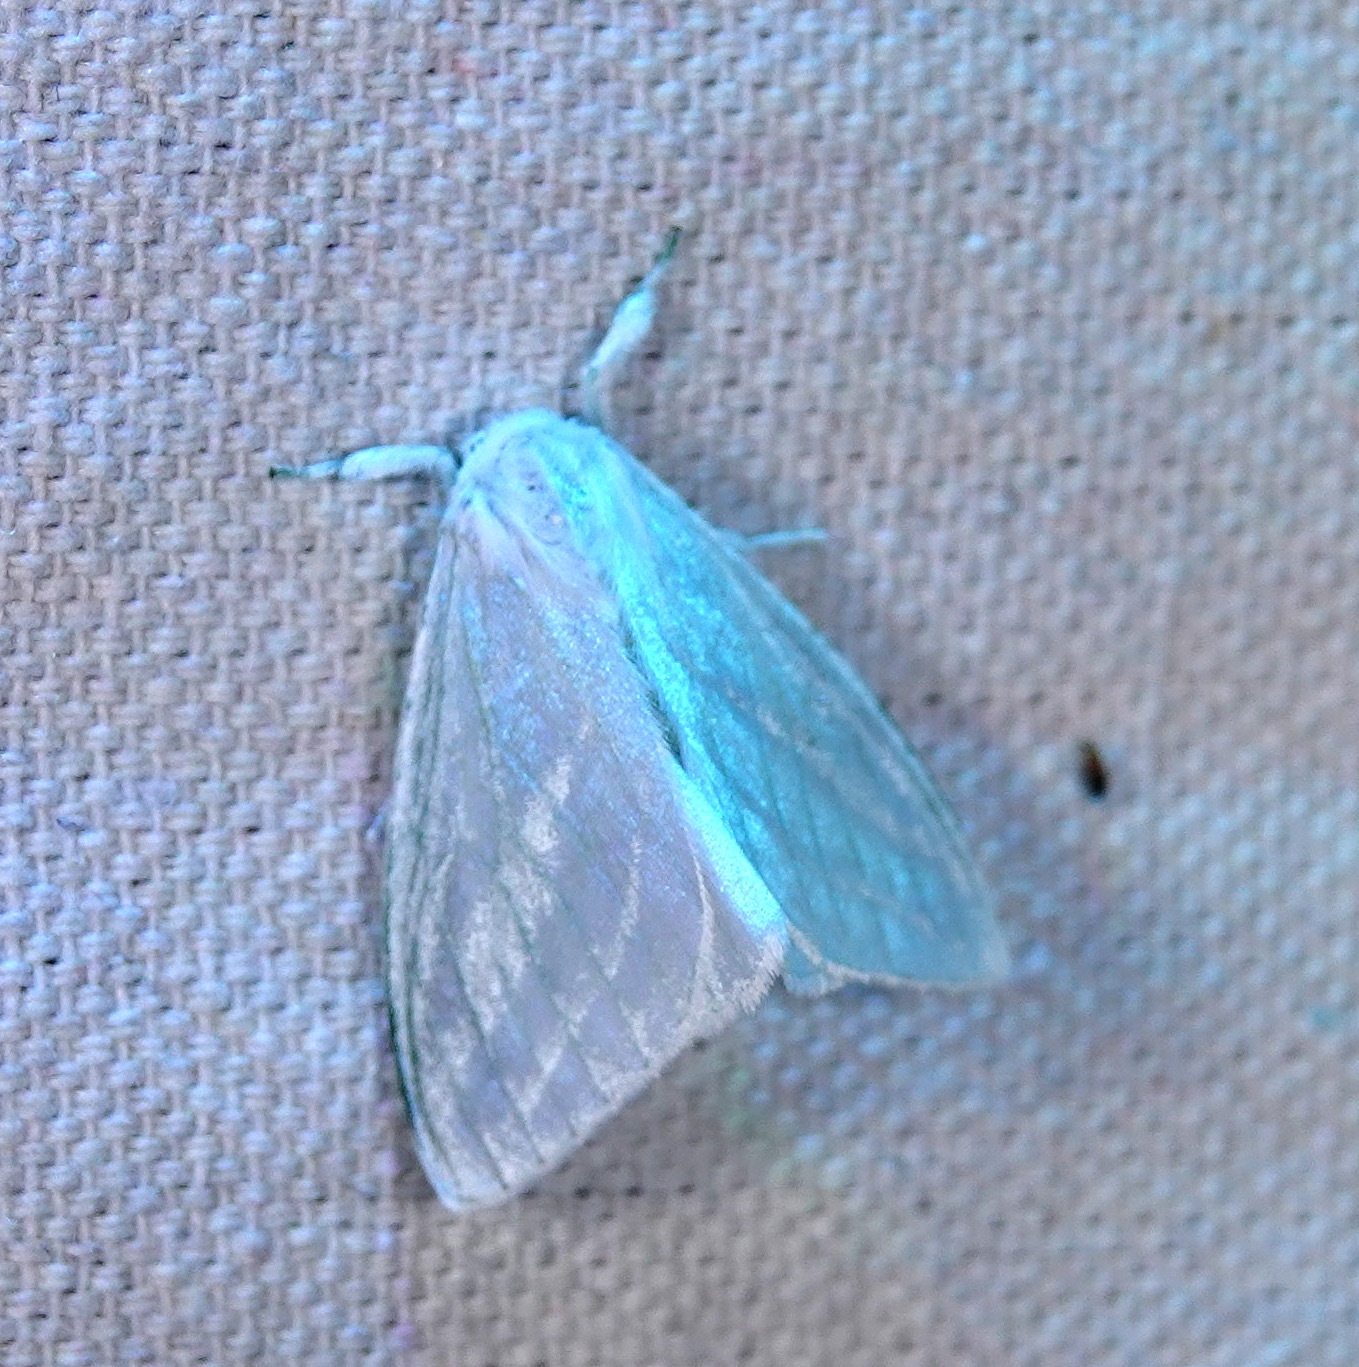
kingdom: Animalia
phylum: Arthropoda
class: Insecta
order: Lepidoptera
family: Erebidae
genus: Caviria
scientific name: Caviria vinasia
